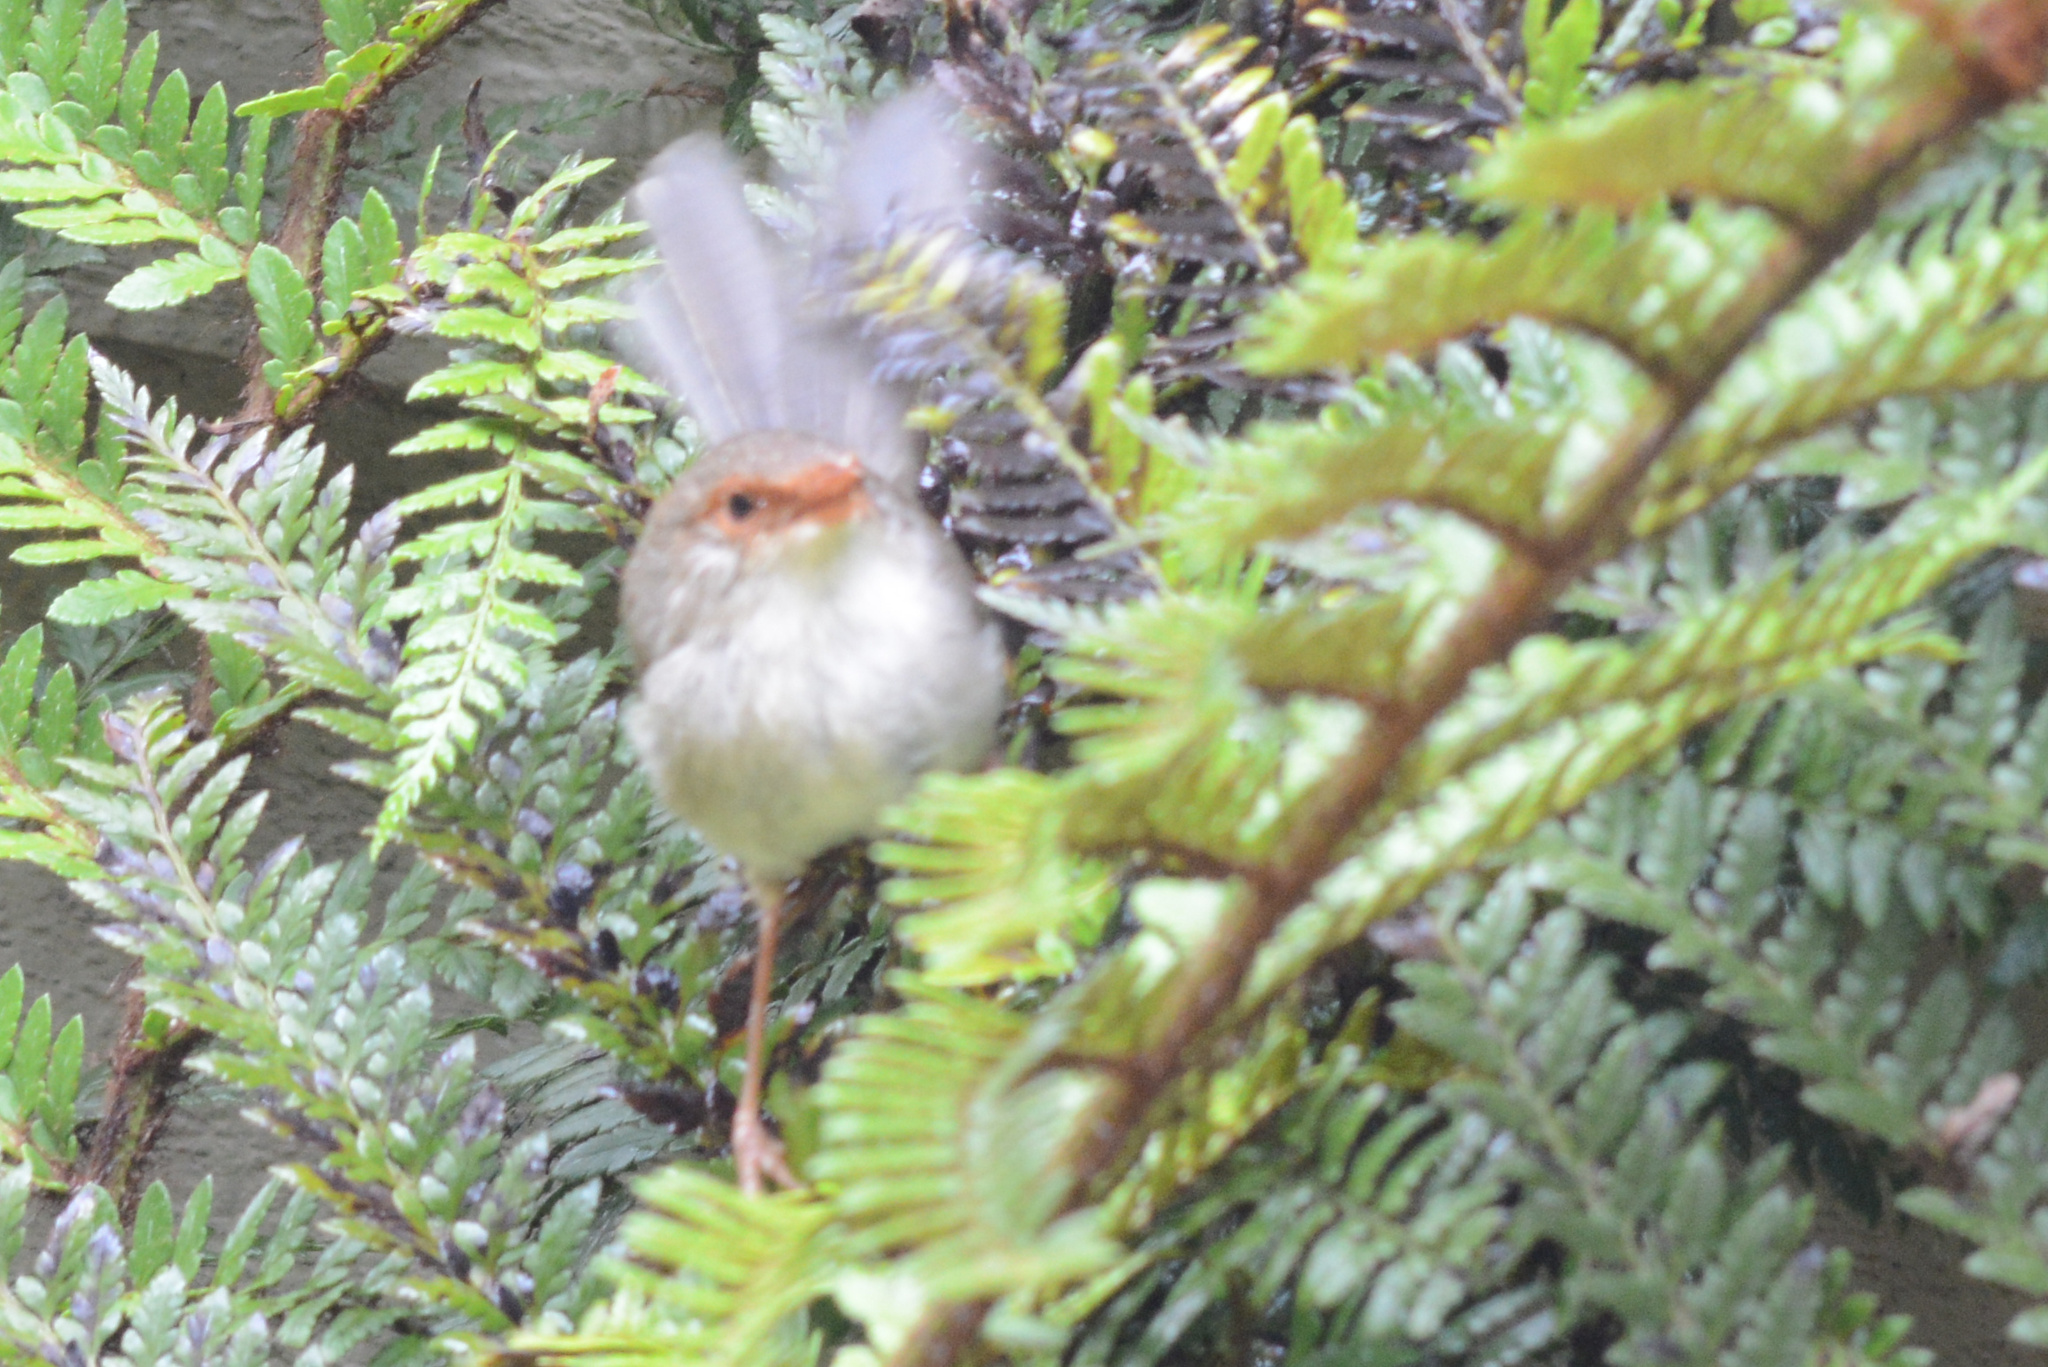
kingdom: Animalia
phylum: Chordata
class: Aves
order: Passeriformes
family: Maluridae
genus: Malurus
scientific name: Malurus cyaneus
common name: Superb fairywren
